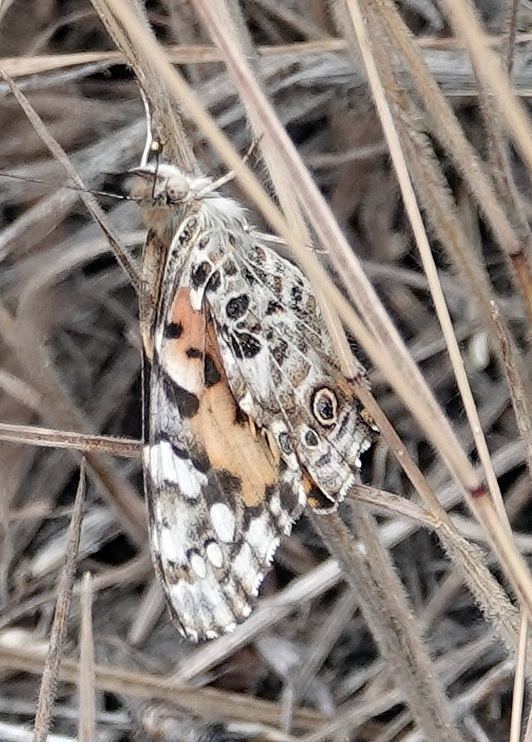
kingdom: Animalia
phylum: Arthropoda
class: Insecta
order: Lepidoptera
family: Nymphalidae
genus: Vanessa
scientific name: Vanessa cardui
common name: Painted lady
